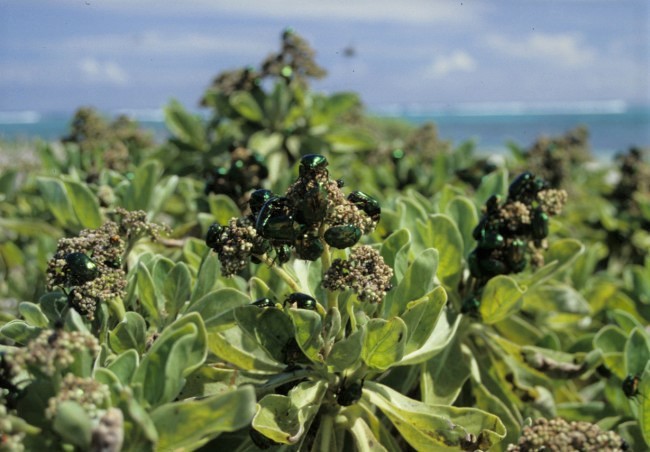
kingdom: Animalia
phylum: Arthropoda
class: Insecta
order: Coleoptera
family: Scarabaeidae
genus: Protaetia
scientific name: Protaetia pryeri
